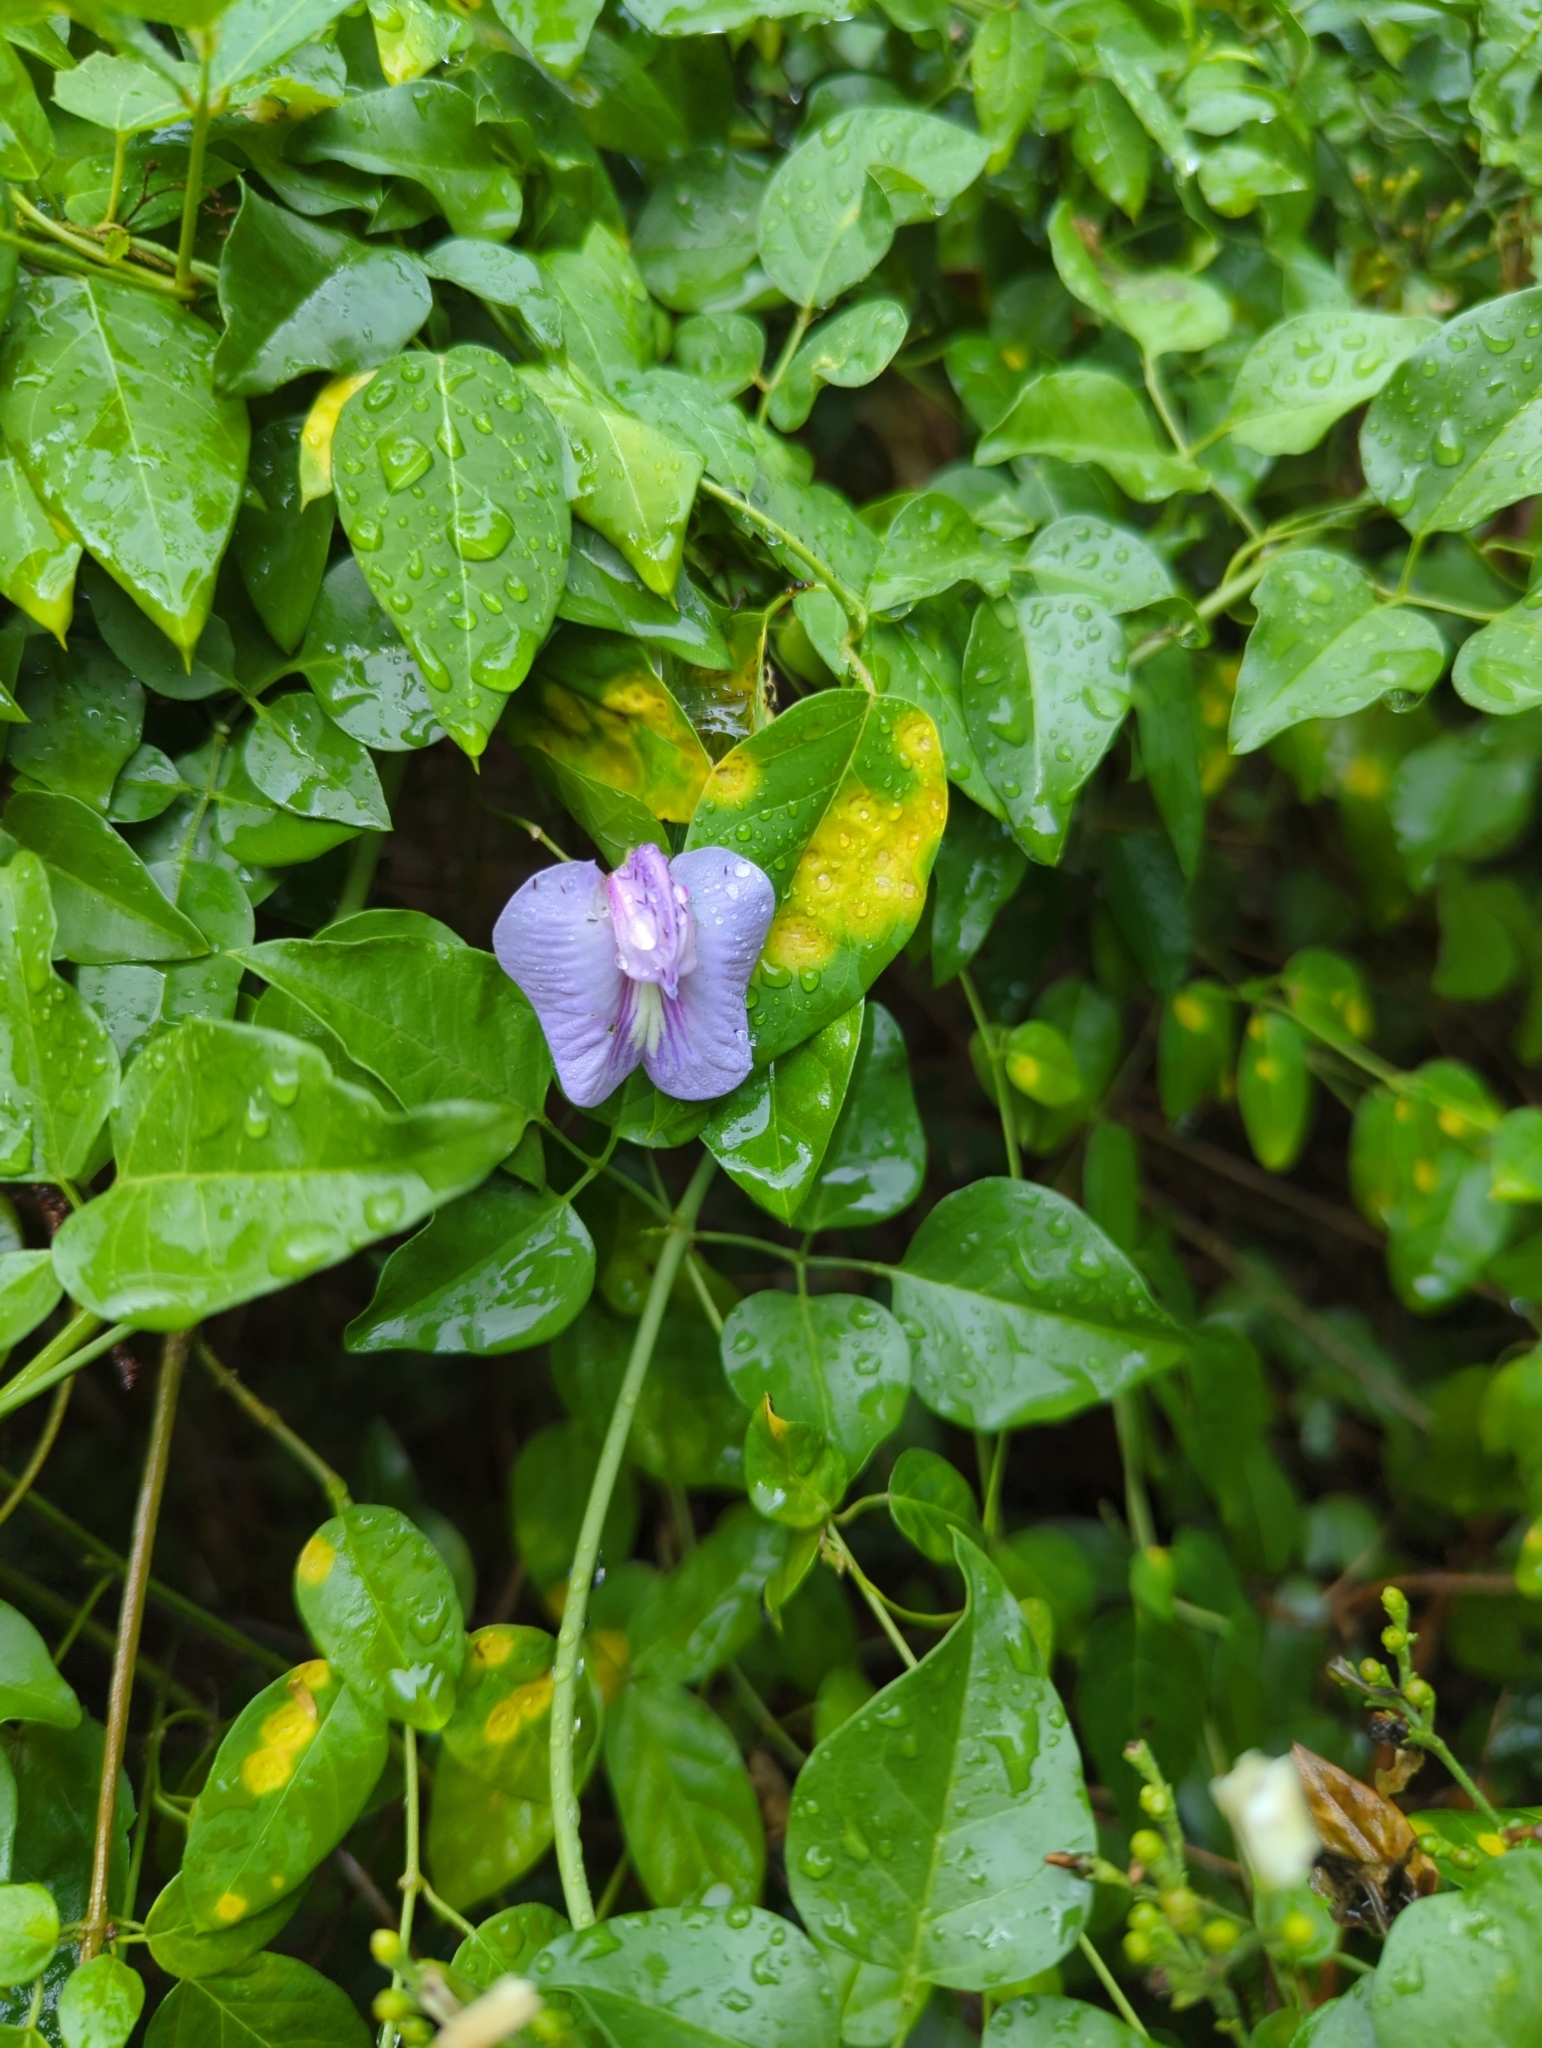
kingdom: Plantae
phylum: Tracheophyta
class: Magnoliopsida
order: Fabales
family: Fabaceae
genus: Centrosema
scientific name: Centrosema virginianum
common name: Butterfly-pea
